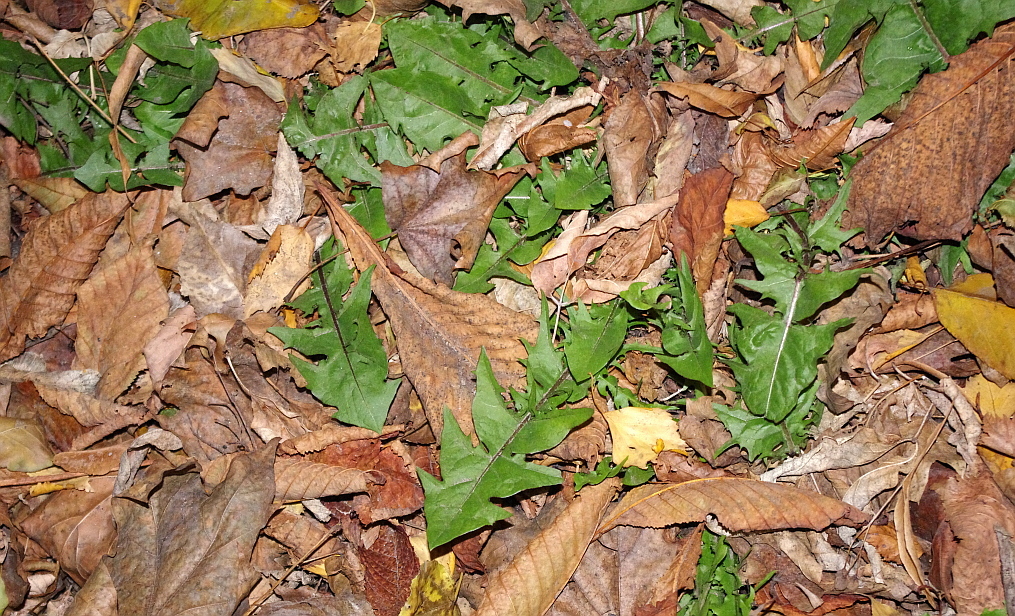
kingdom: Plantae
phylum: Tracheophyta
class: Magnoliopsida
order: Asterales
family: Asteraceae
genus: Taraxacum
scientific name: Taraxacum officinale
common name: Common dandelion
